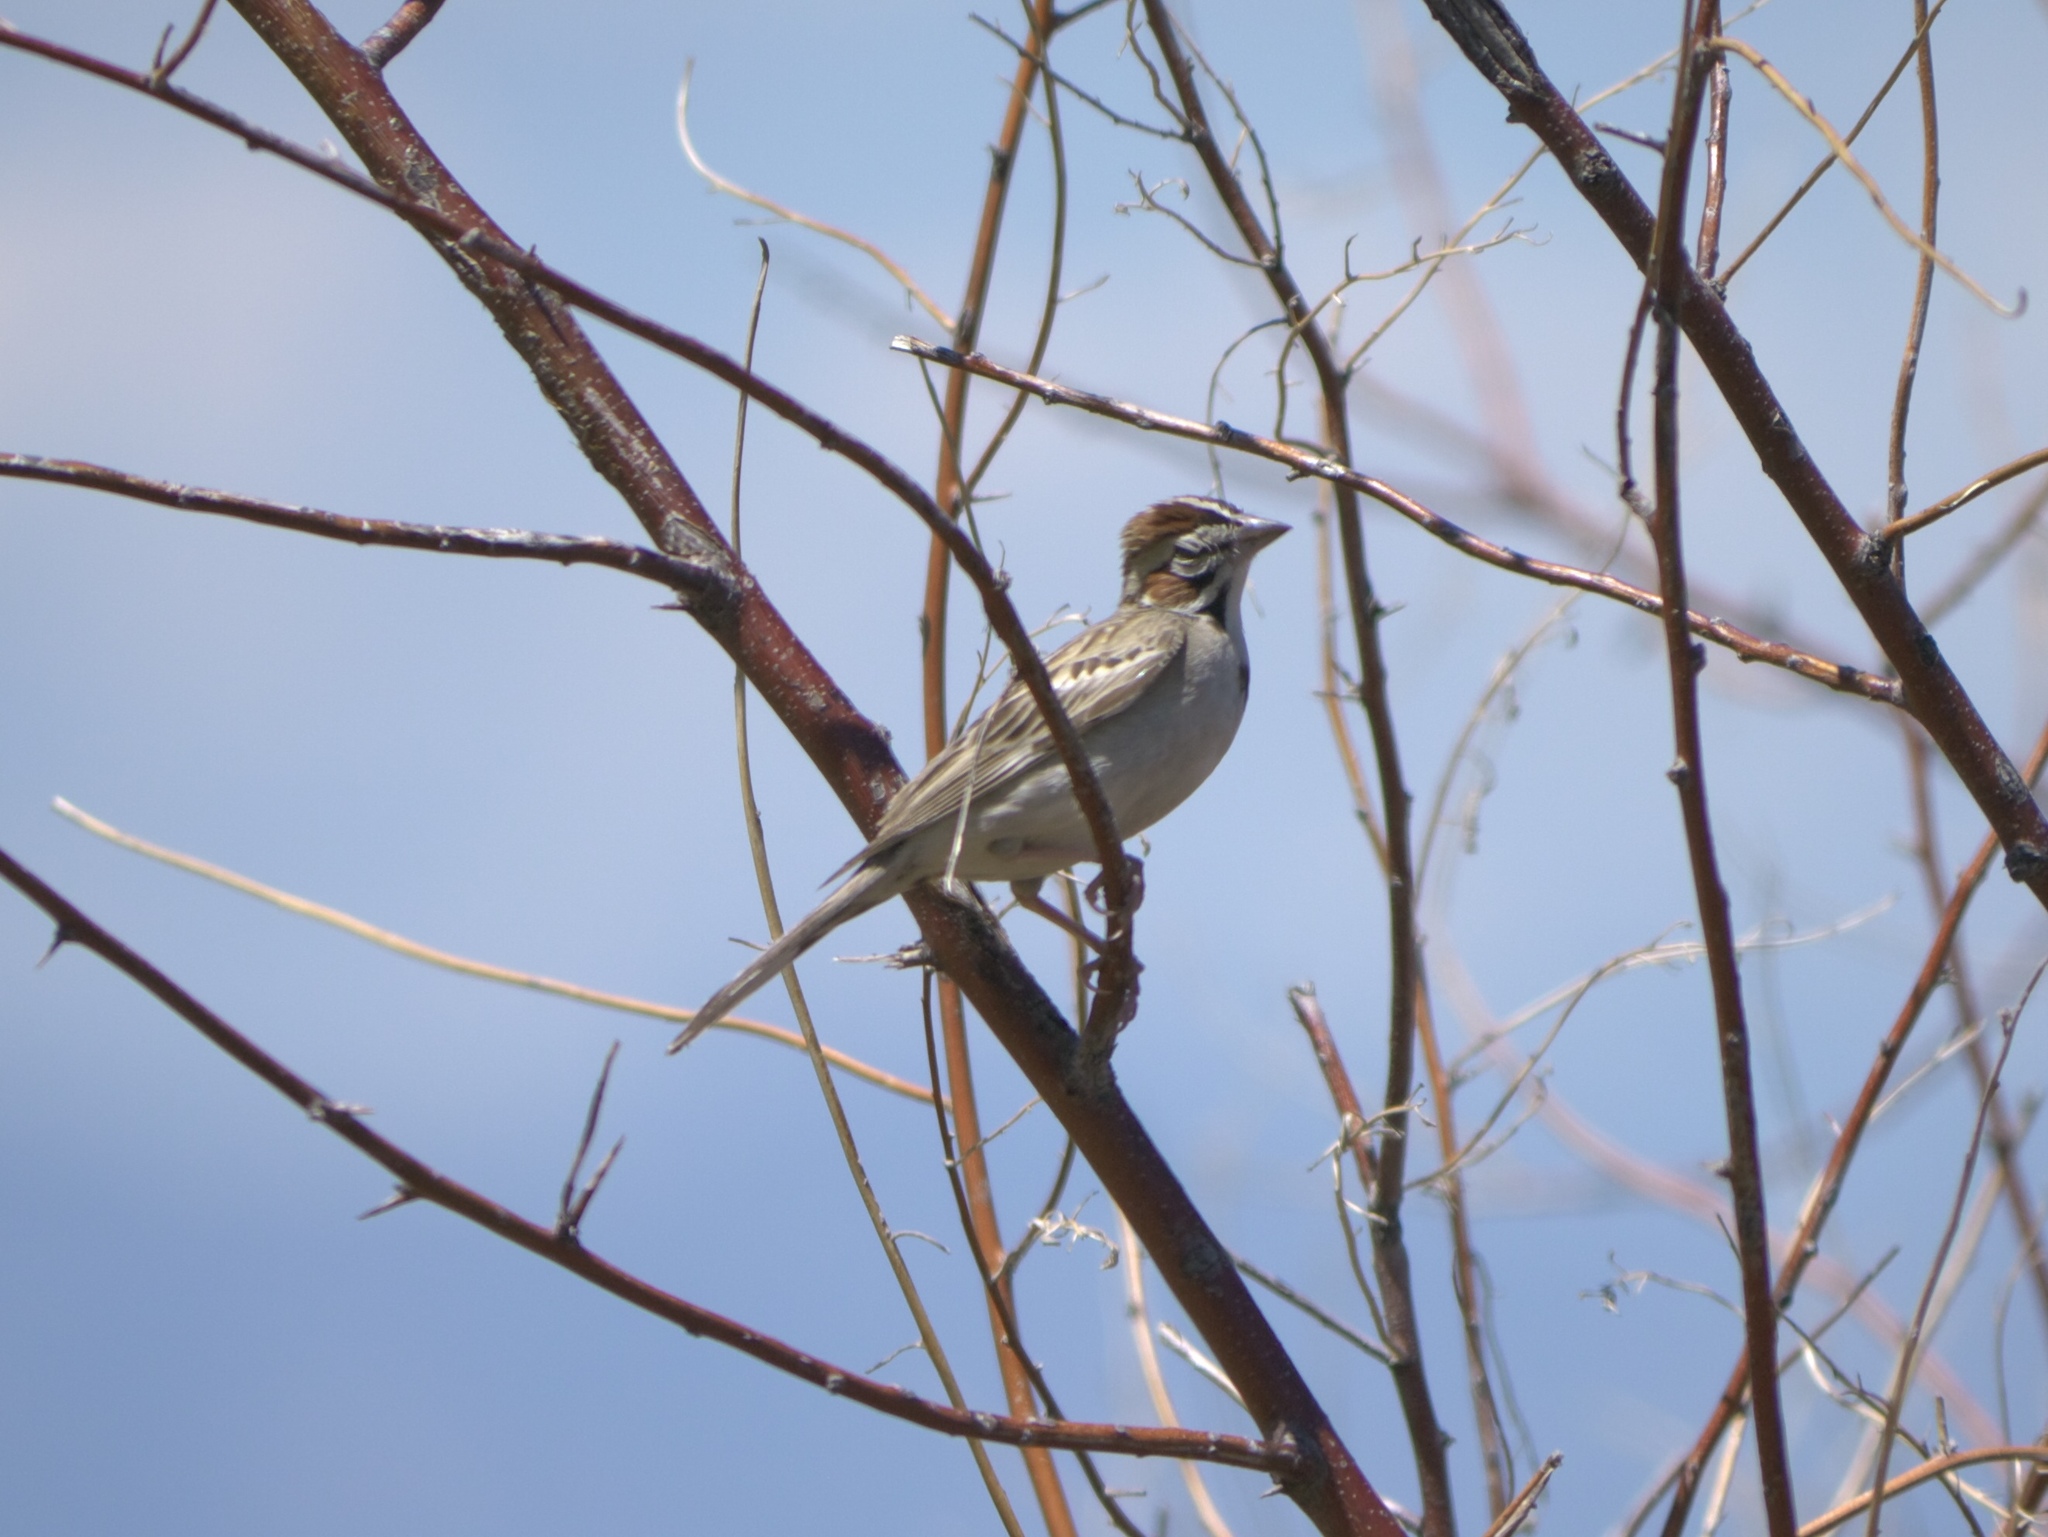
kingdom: Animalia
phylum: Chordata
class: Aves
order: Passeriformes
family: Passerellidae
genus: Chondestes
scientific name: Chondestes grammacus
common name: Lark sparrow
